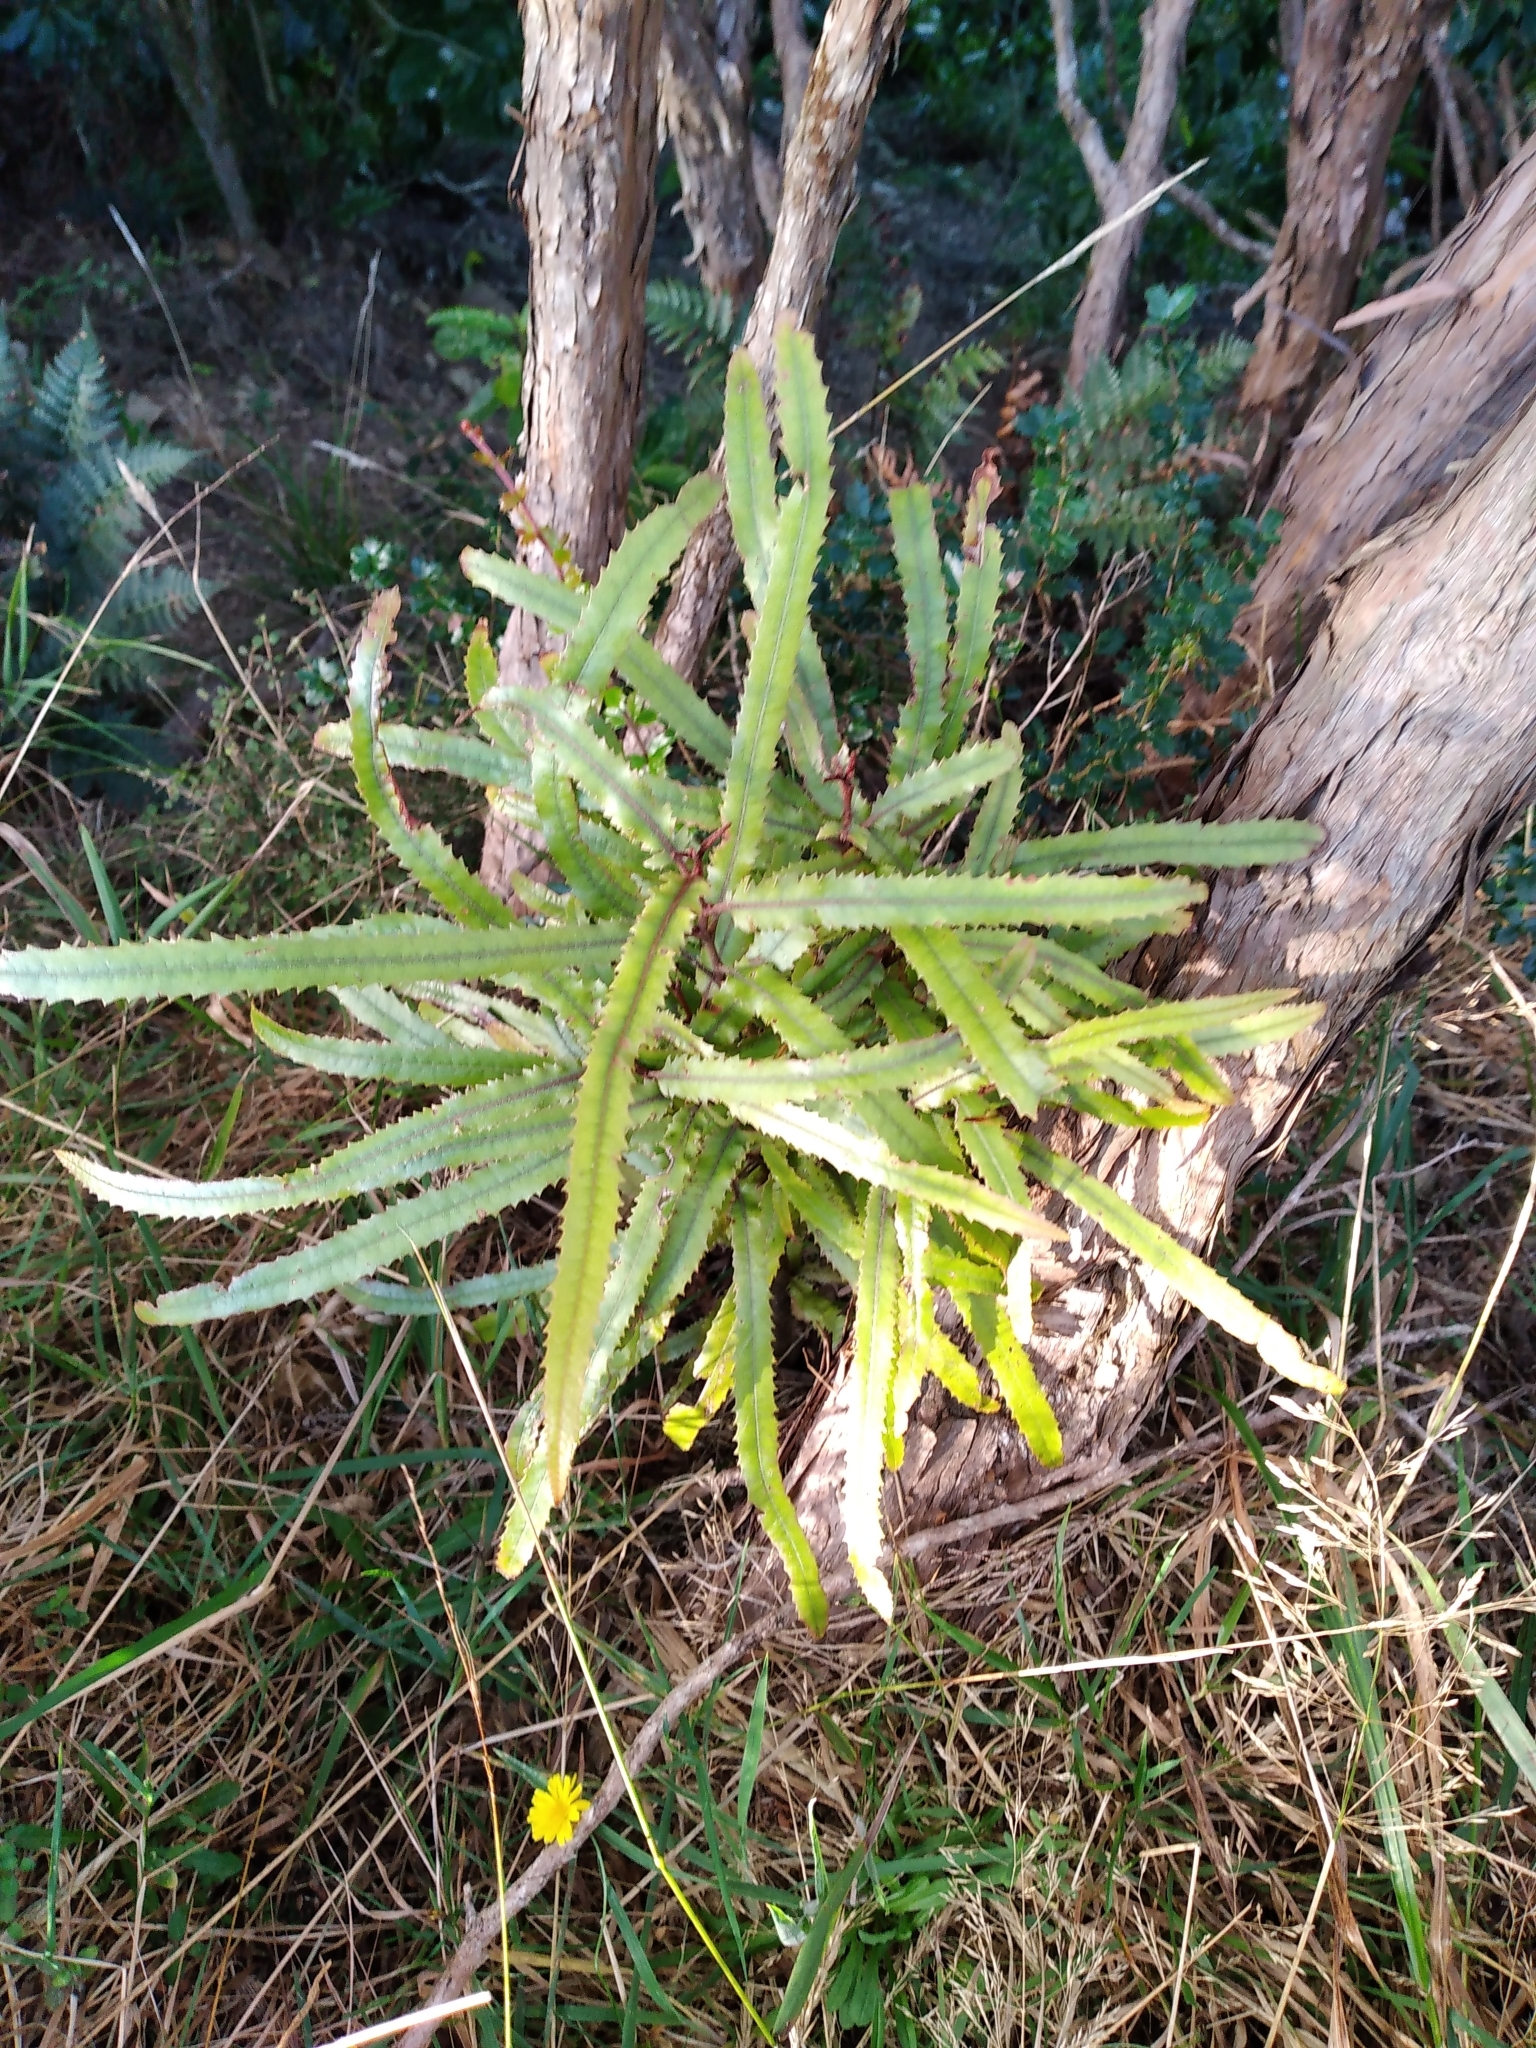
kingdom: Plantae
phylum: Tracheophyta
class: Magnoliopsida
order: Proteales
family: Proteaceae
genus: Knightia
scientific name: Knightia excelsa
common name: New zealand-honeysuckle
